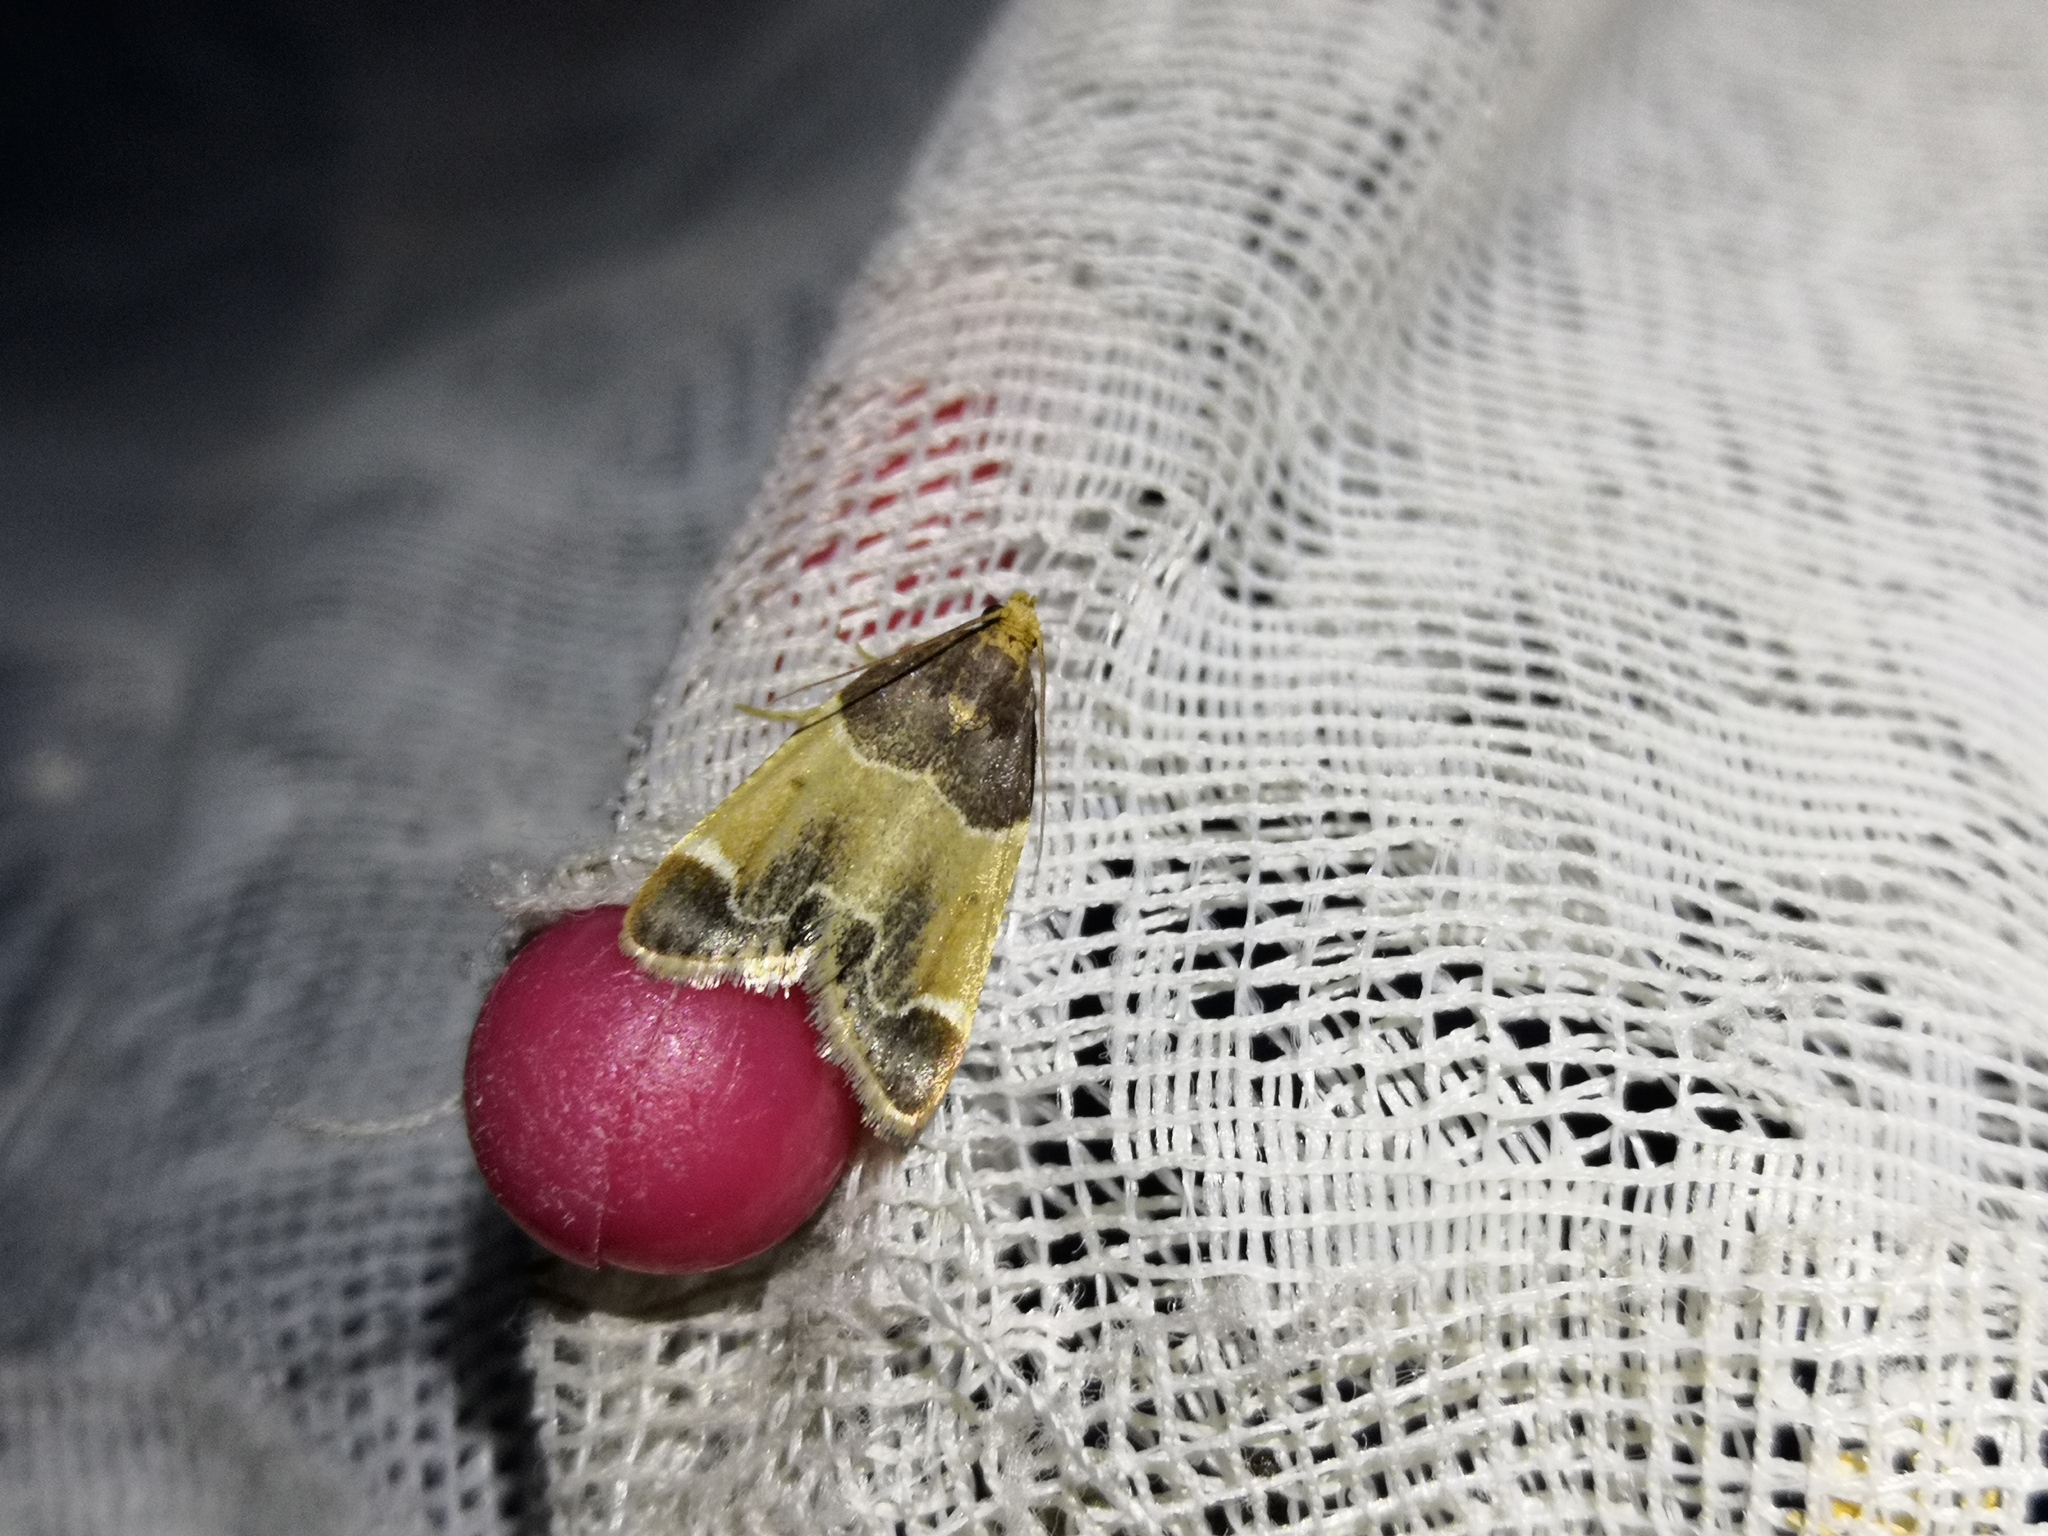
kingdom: Animalia
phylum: Arthropoda
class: Insecta
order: Lepidoptera
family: Pyralidae
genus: Pyralis
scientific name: Pyralis farinalis
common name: Meal moth
